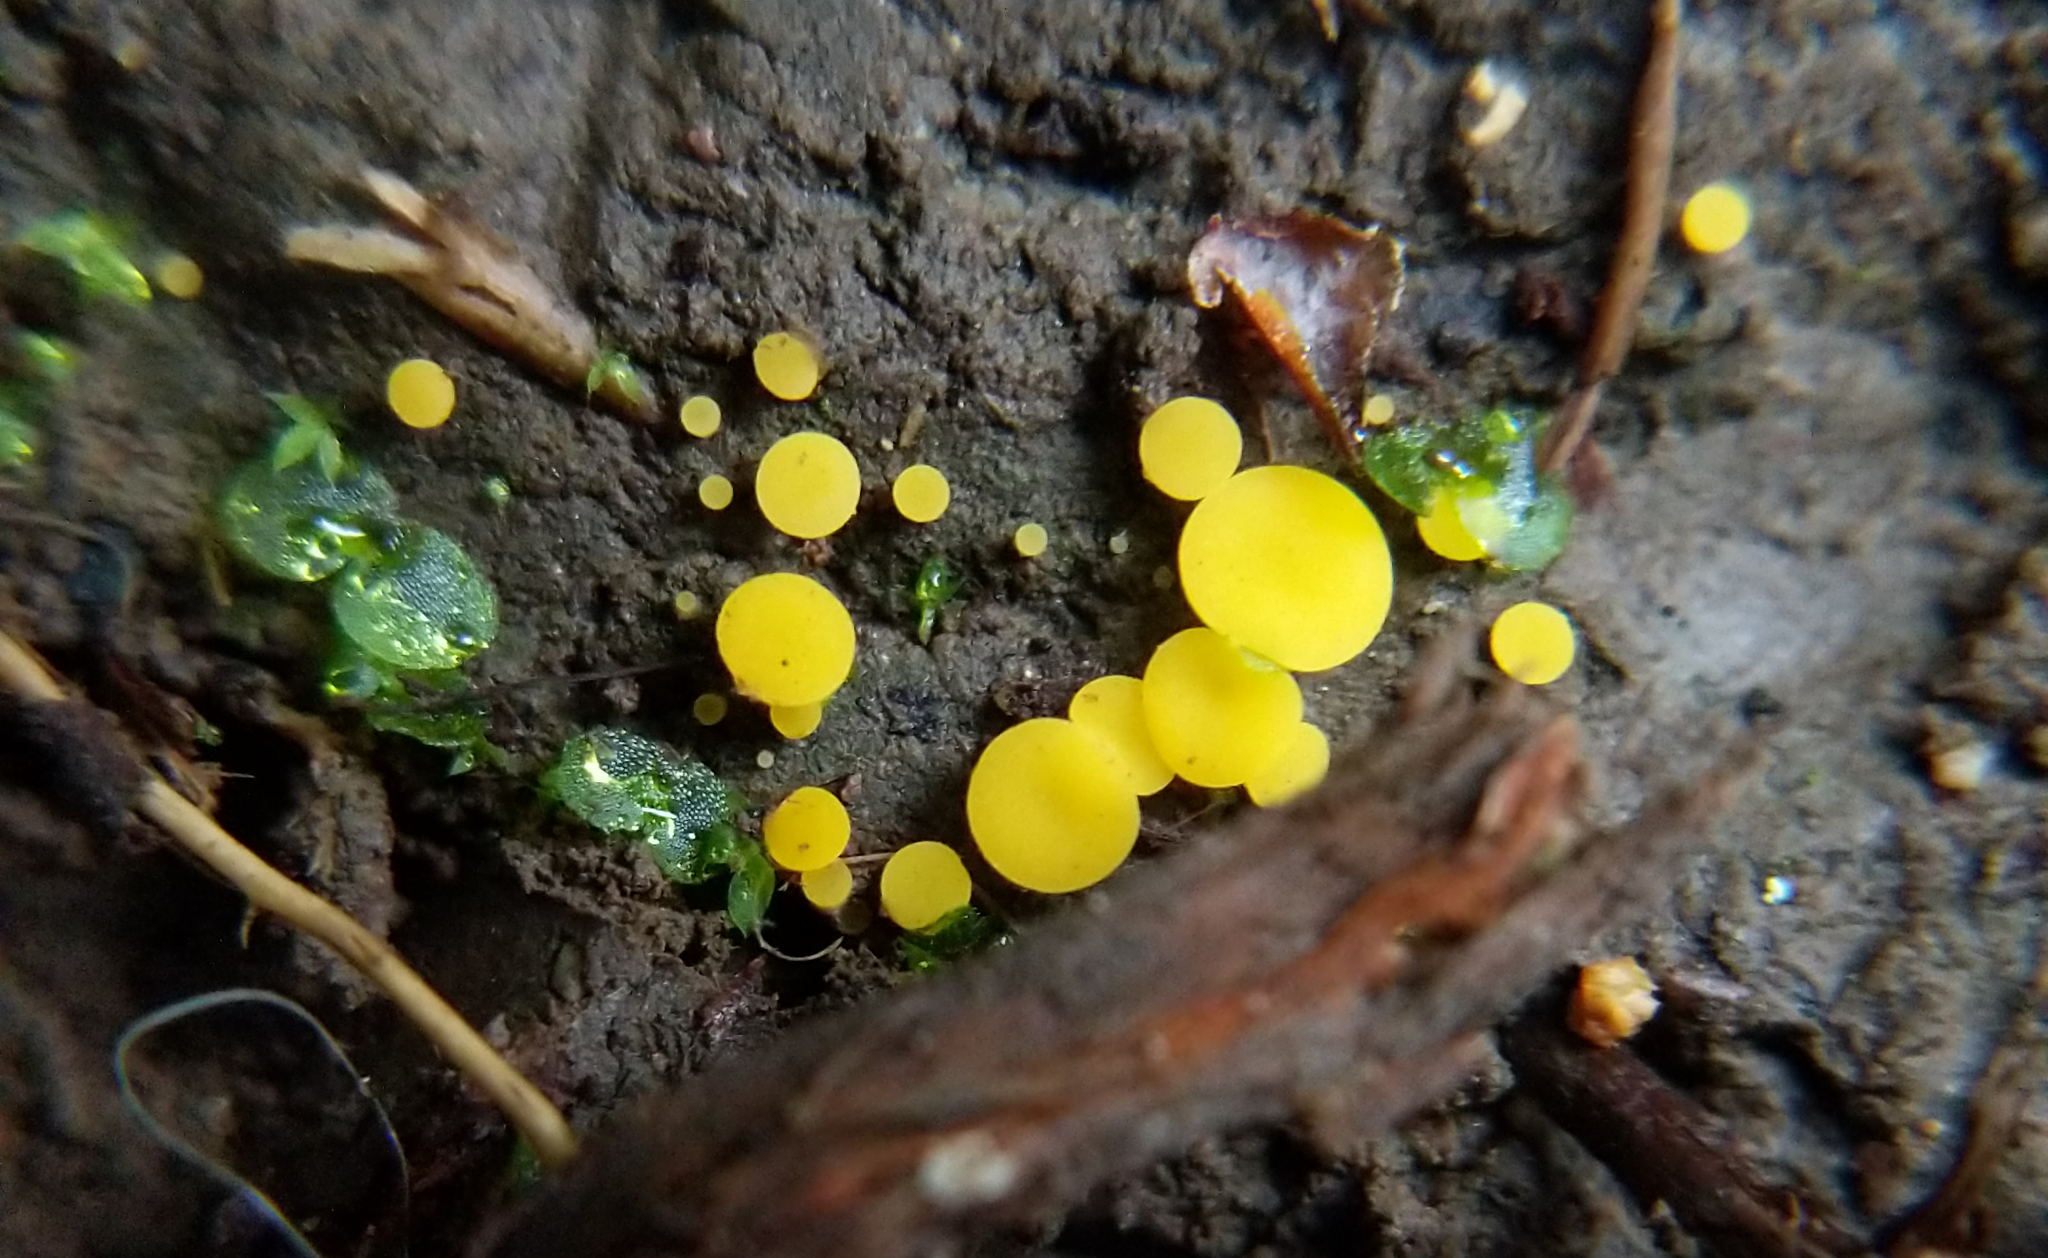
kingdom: Fungi
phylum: Ascomycota
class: Leotiomycetes
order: Helotiales
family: Pezizellaceae
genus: Calycina
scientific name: Calycina citrina
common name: Yellow fairy cups
